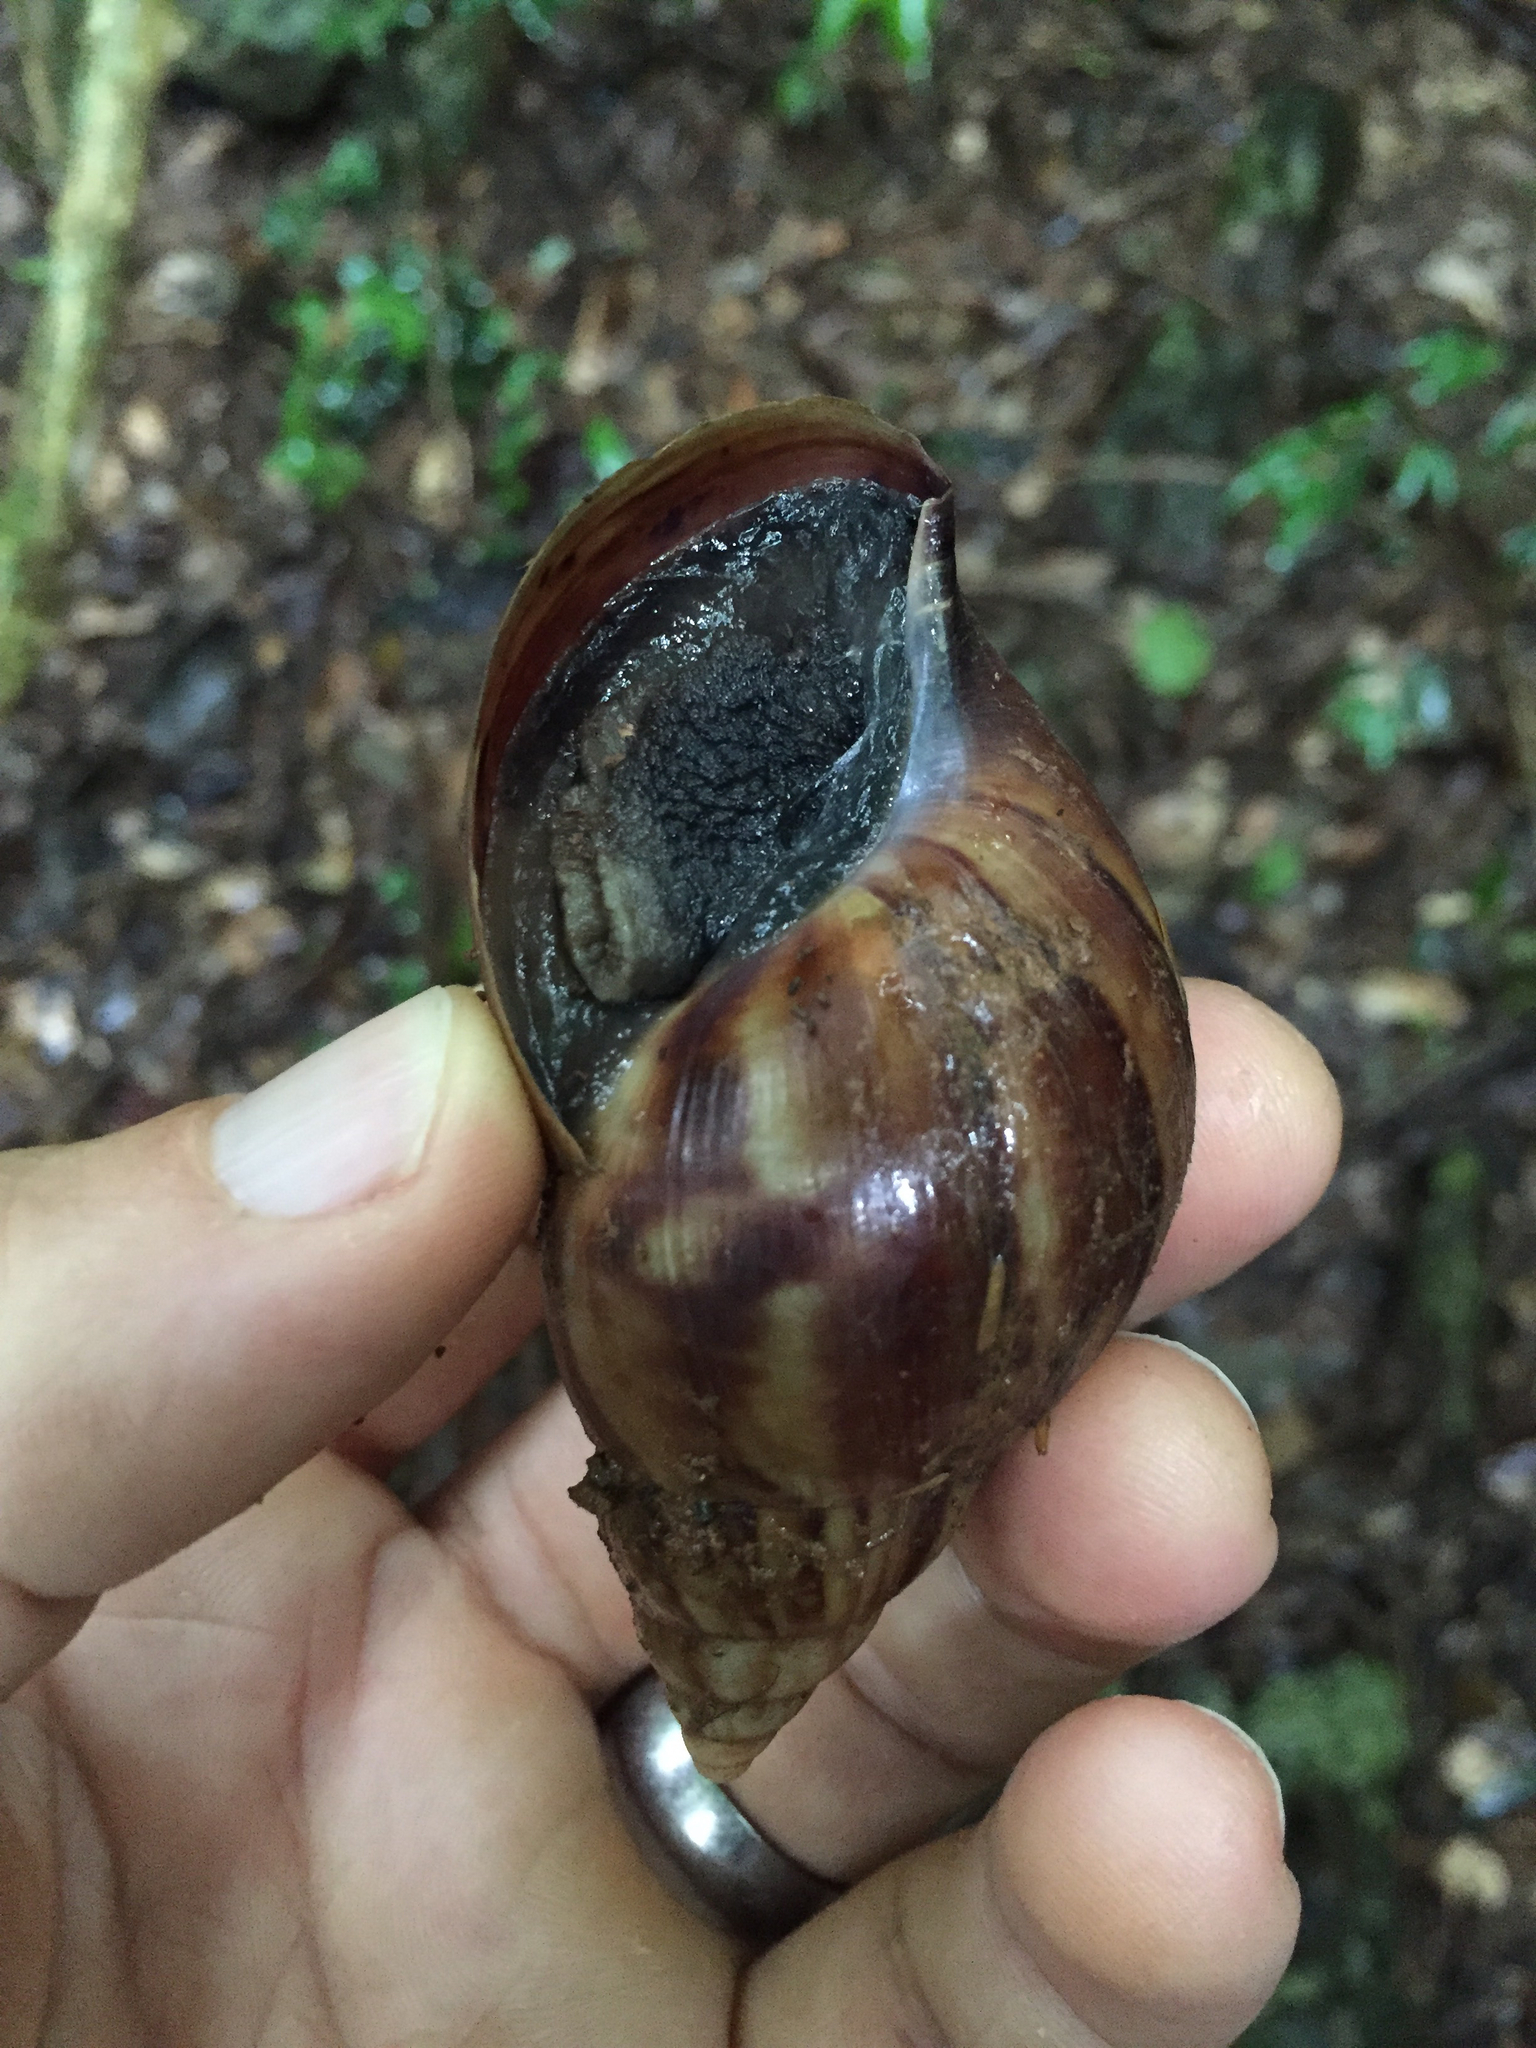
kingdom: Animalia
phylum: Mollusca
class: Gastropoda
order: Stylommatophora
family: Achatinidae
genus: Lissachatina
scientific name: Lissachatina fulica
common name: Giant african snail
